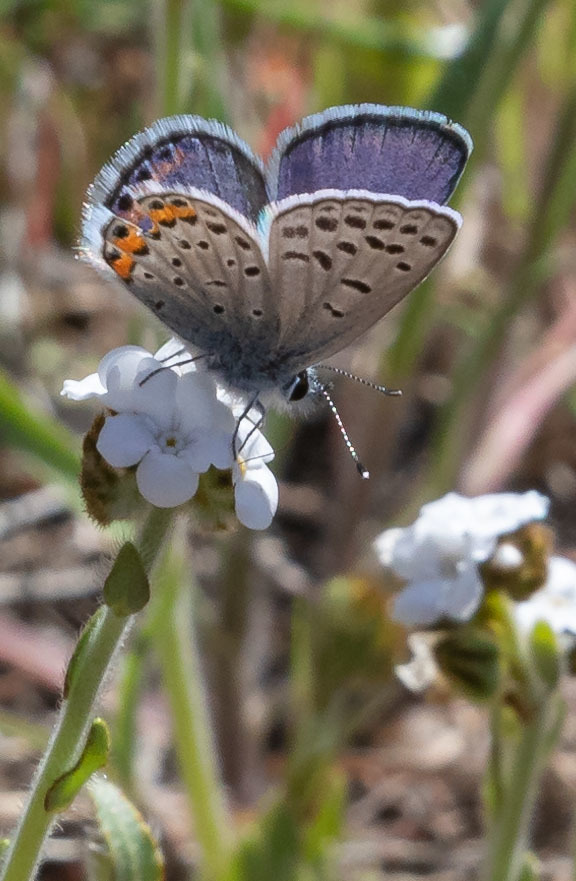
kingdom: Animalia
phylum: Arthropoda
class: Insecta
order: Lepidoptera
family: Lycaenidae
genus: Icaricia
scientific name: Icaricia acmon
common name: Acmon blue
